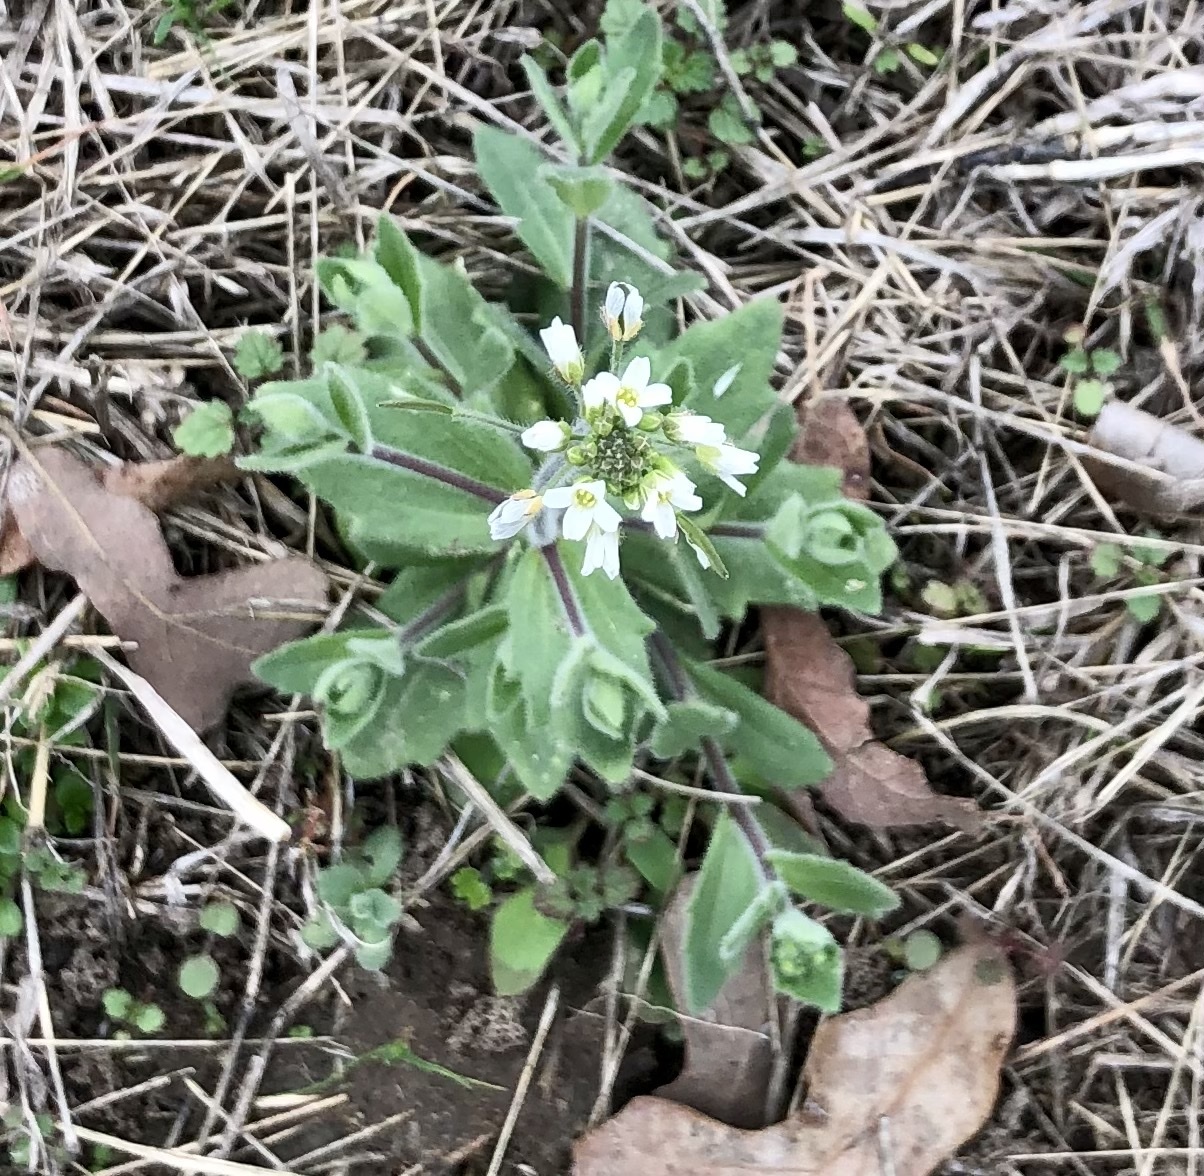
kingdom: Plantae
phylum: Tracheophyta
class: Magnoliopsida
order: Brassicales
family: Brassicaceae
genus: Tomostima
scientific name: Tomostima platycarpa
